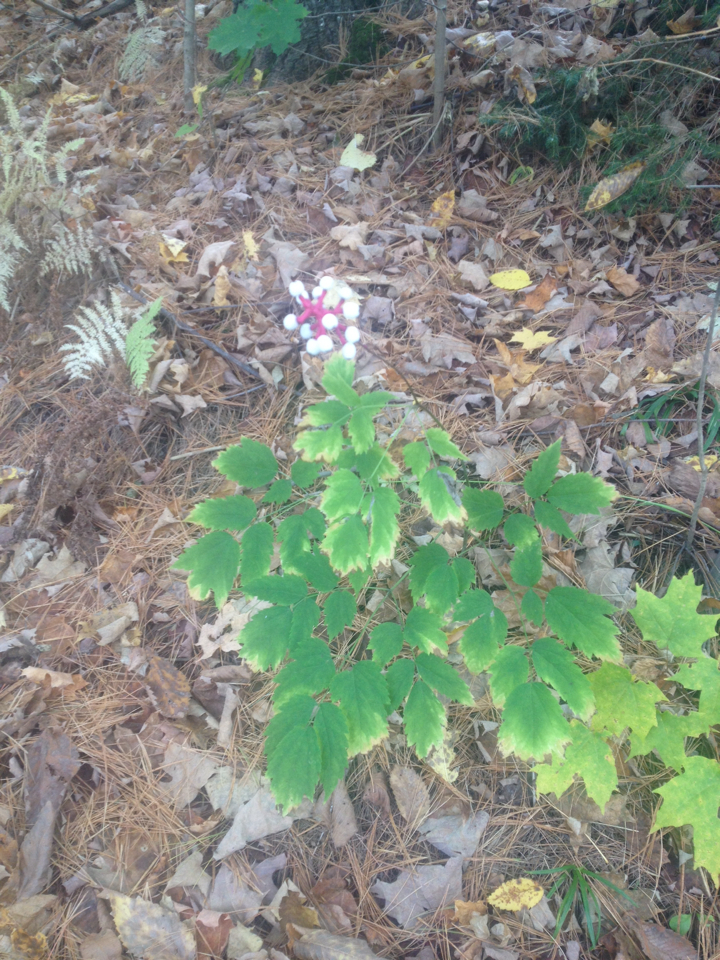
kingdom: Plantae
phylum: Tracheophyta
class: Magnoliopsida
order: Ranunculales
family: Ranunculaceae
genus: Actaea
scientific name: Actaea pachypoda
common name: Doll's-eyes
